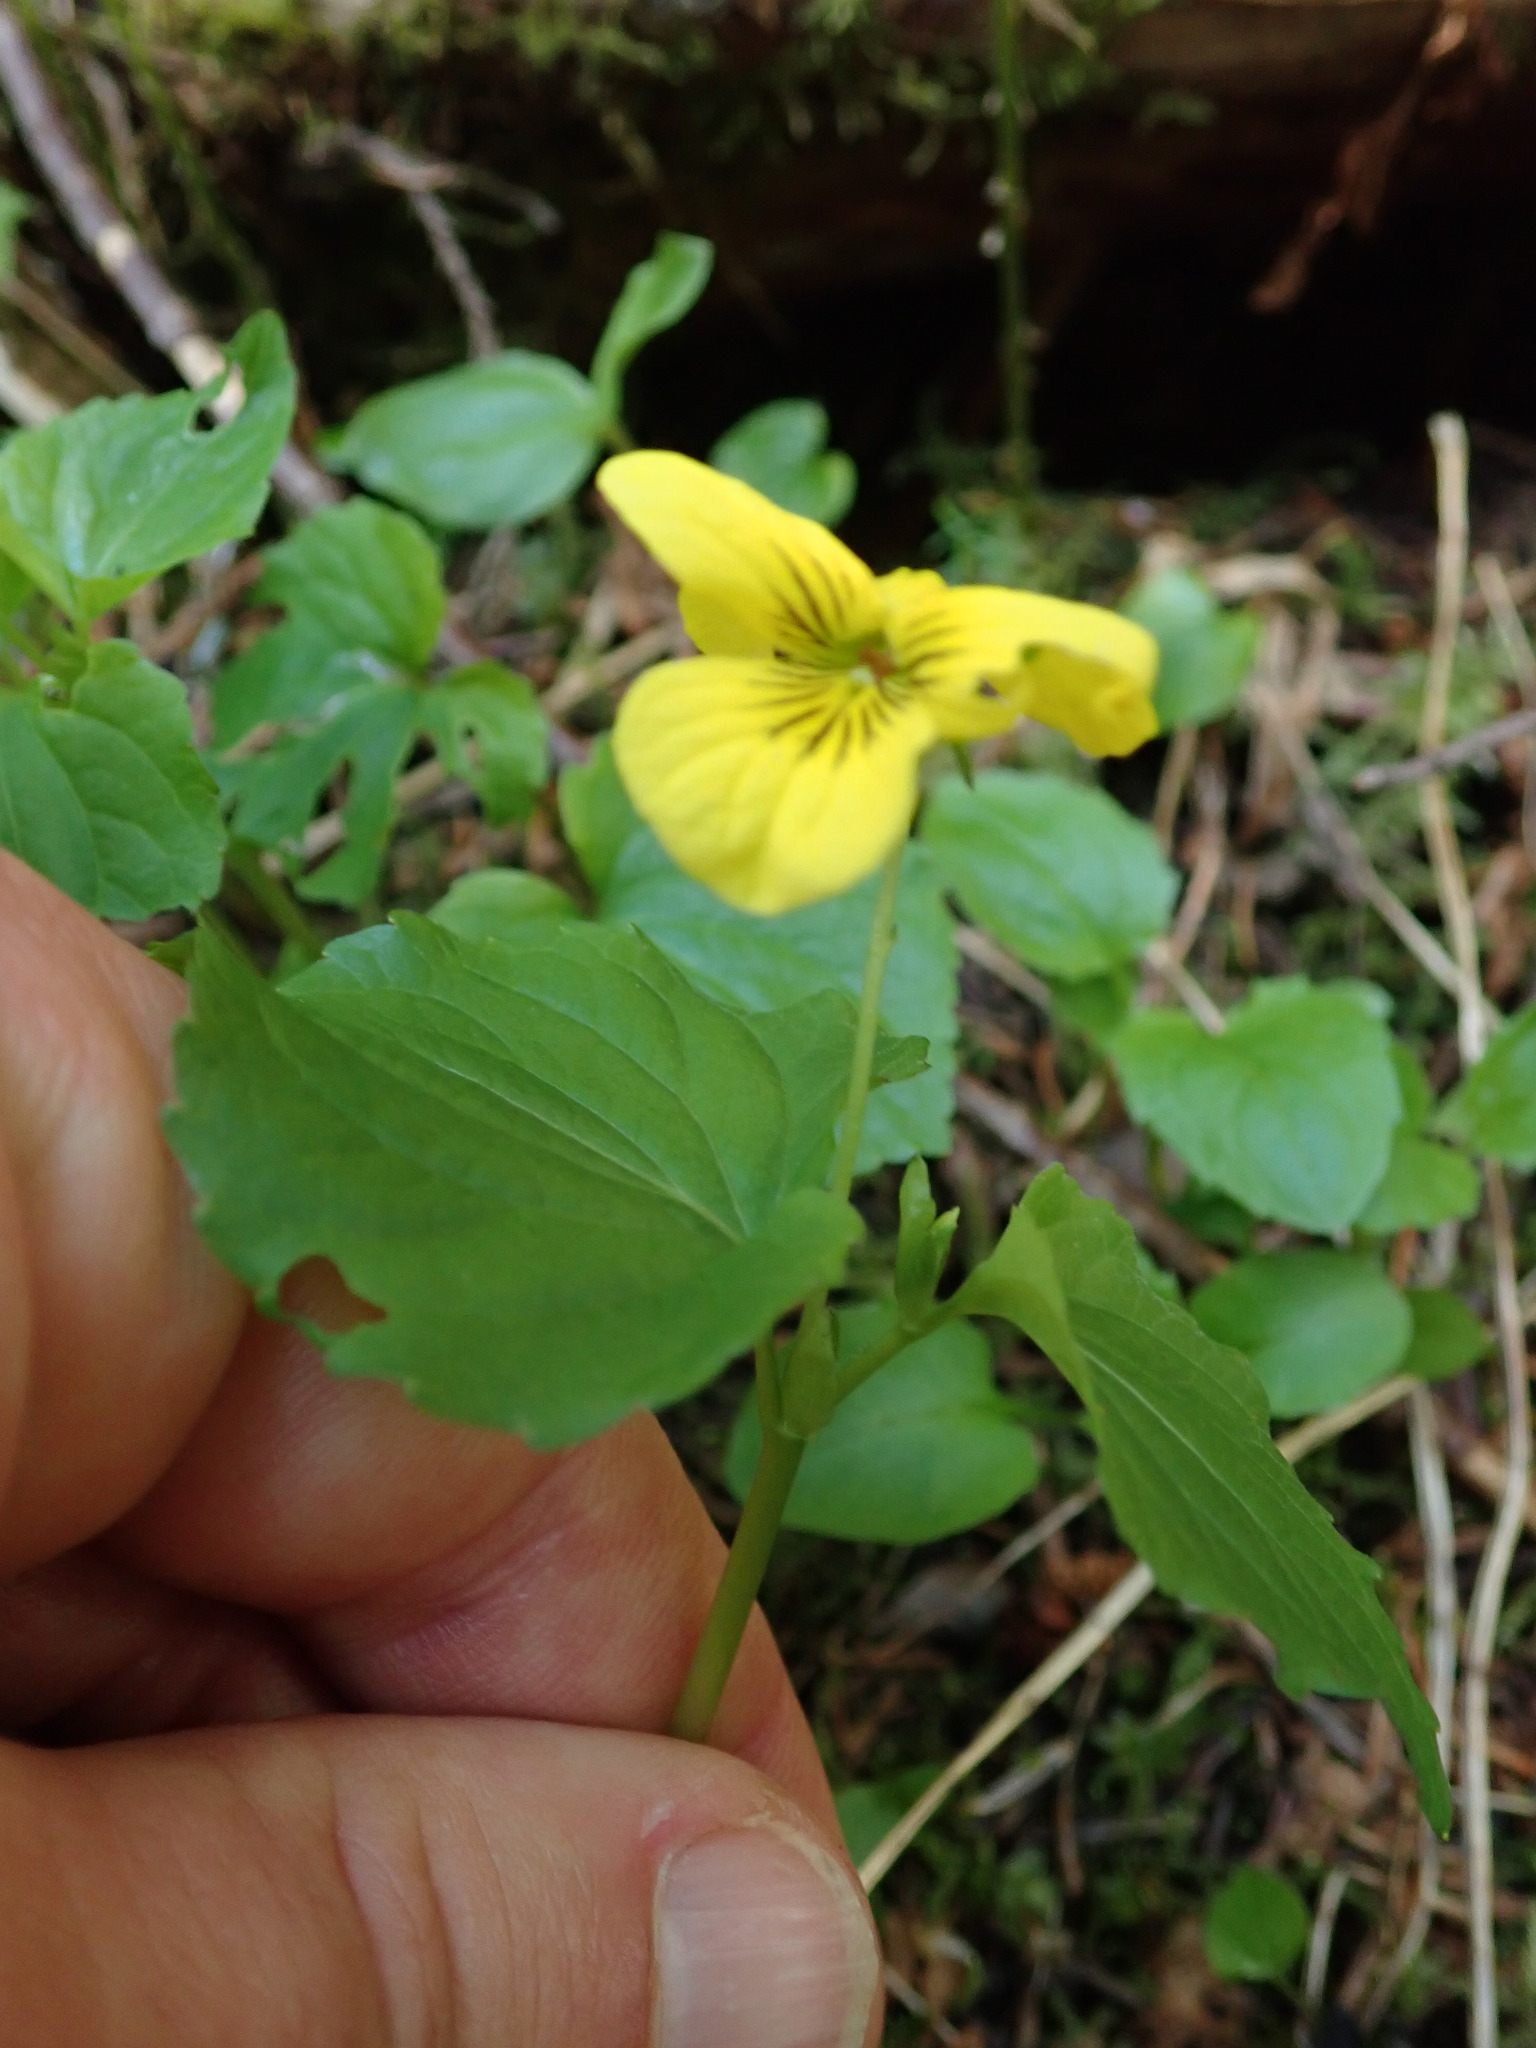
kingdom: Plantae
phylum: Tracheophyta
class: Magnoliopsida
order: Malpighiales
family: Violaceae
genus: Viola
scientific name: Viola glabella
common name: Stream violet
